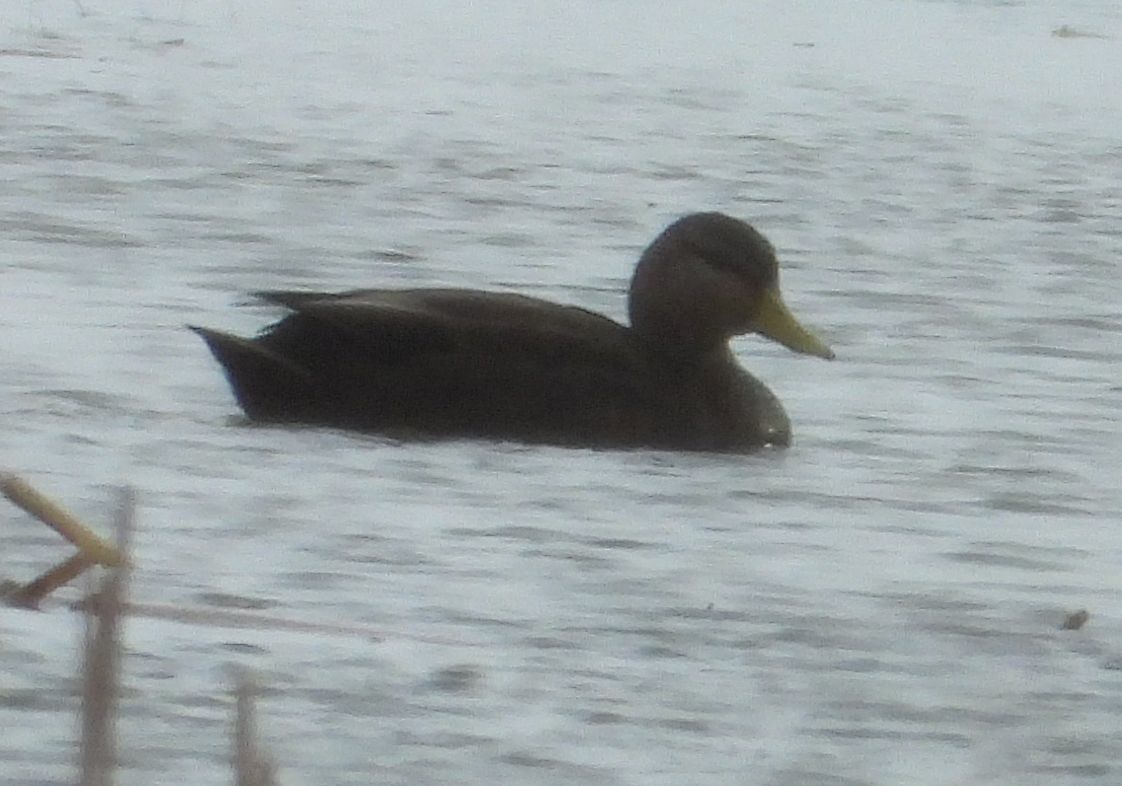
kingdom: Animalia
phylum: Chordata
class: Aves
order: Anseriformes
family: Anatidae
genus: Anas
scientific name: Anas rubripes
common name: American black duck
